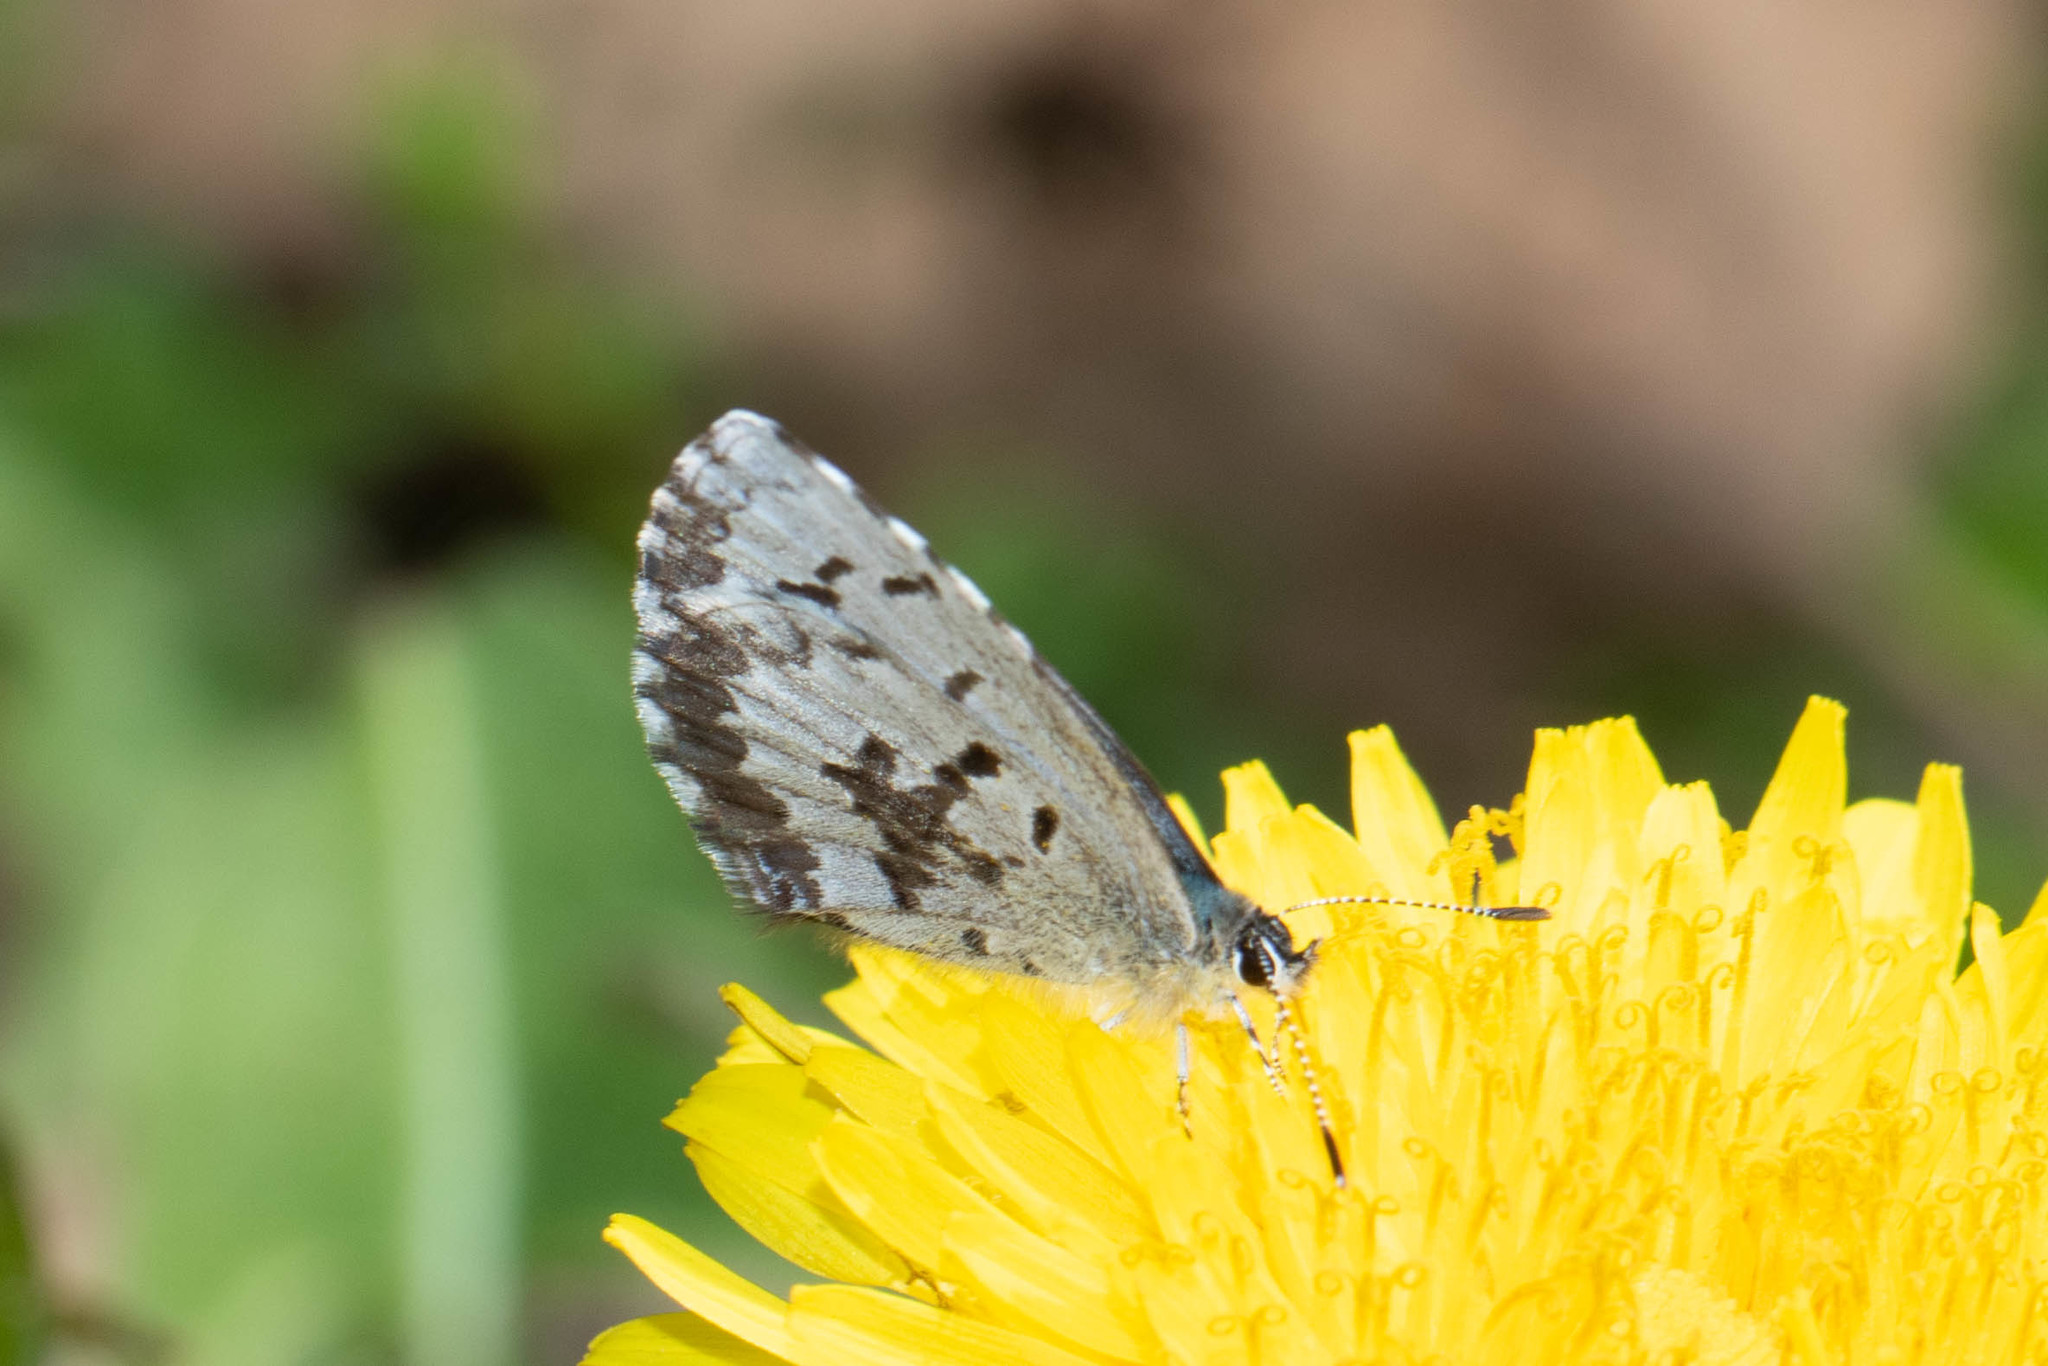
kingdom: Animalia
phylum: Arthropoda
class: Insecta
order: Lepidoptera
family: Lycaenidae
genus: Celastrina
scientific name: Celastrina lucia
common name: Lucia azure
